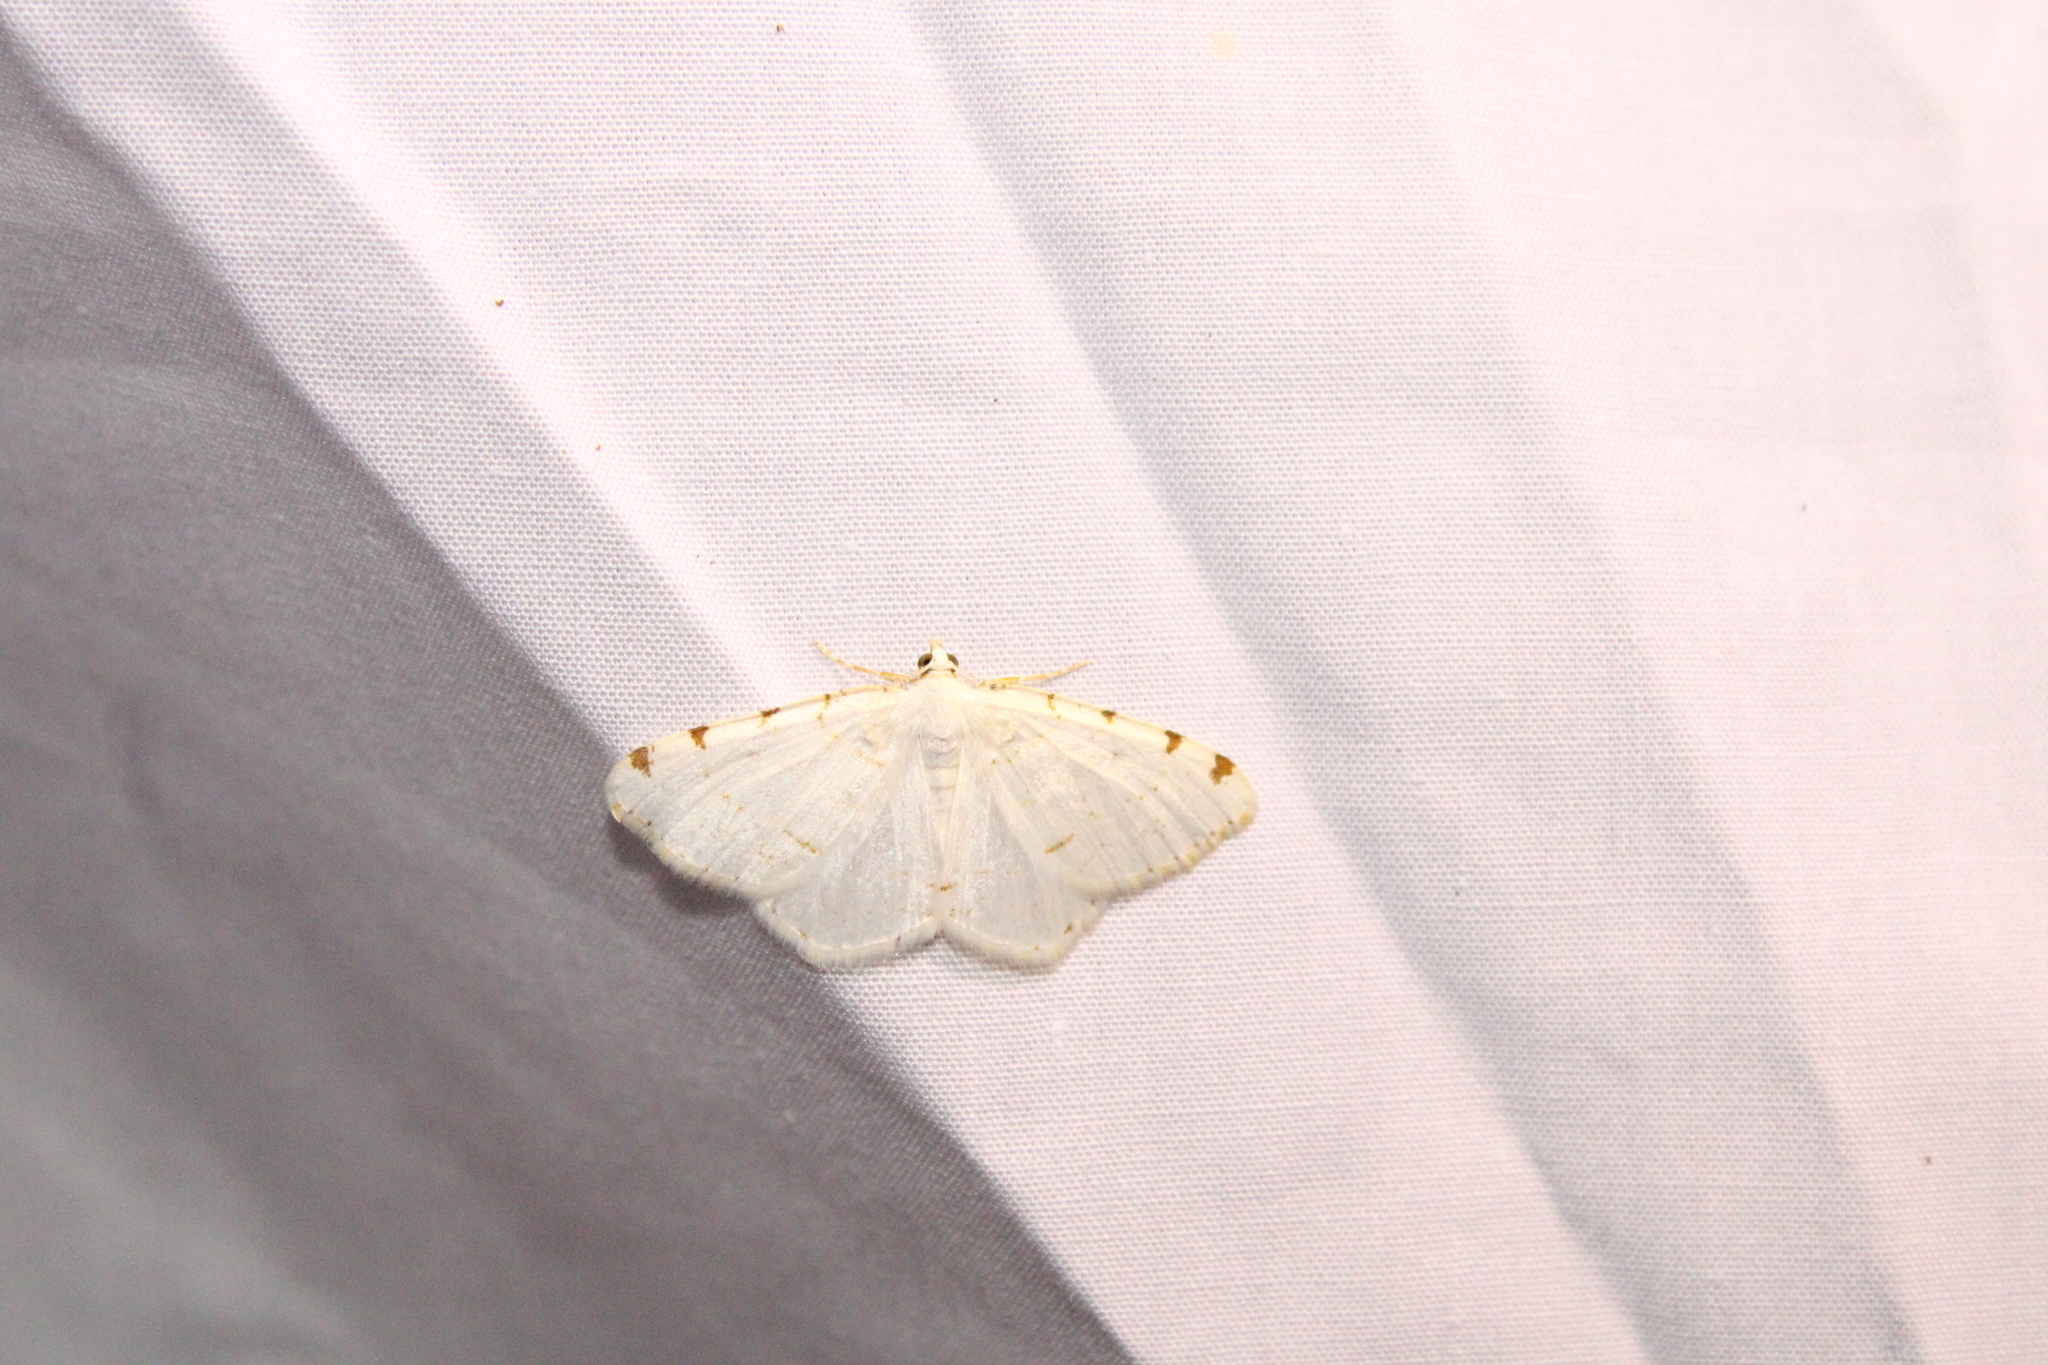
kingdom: Animalia
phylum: Arthropoda
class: Insecta
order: Lepidoptera
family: Geometridae
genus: Macaria
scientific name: Macaria pustularia
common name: Lesser maple spanworm moth
